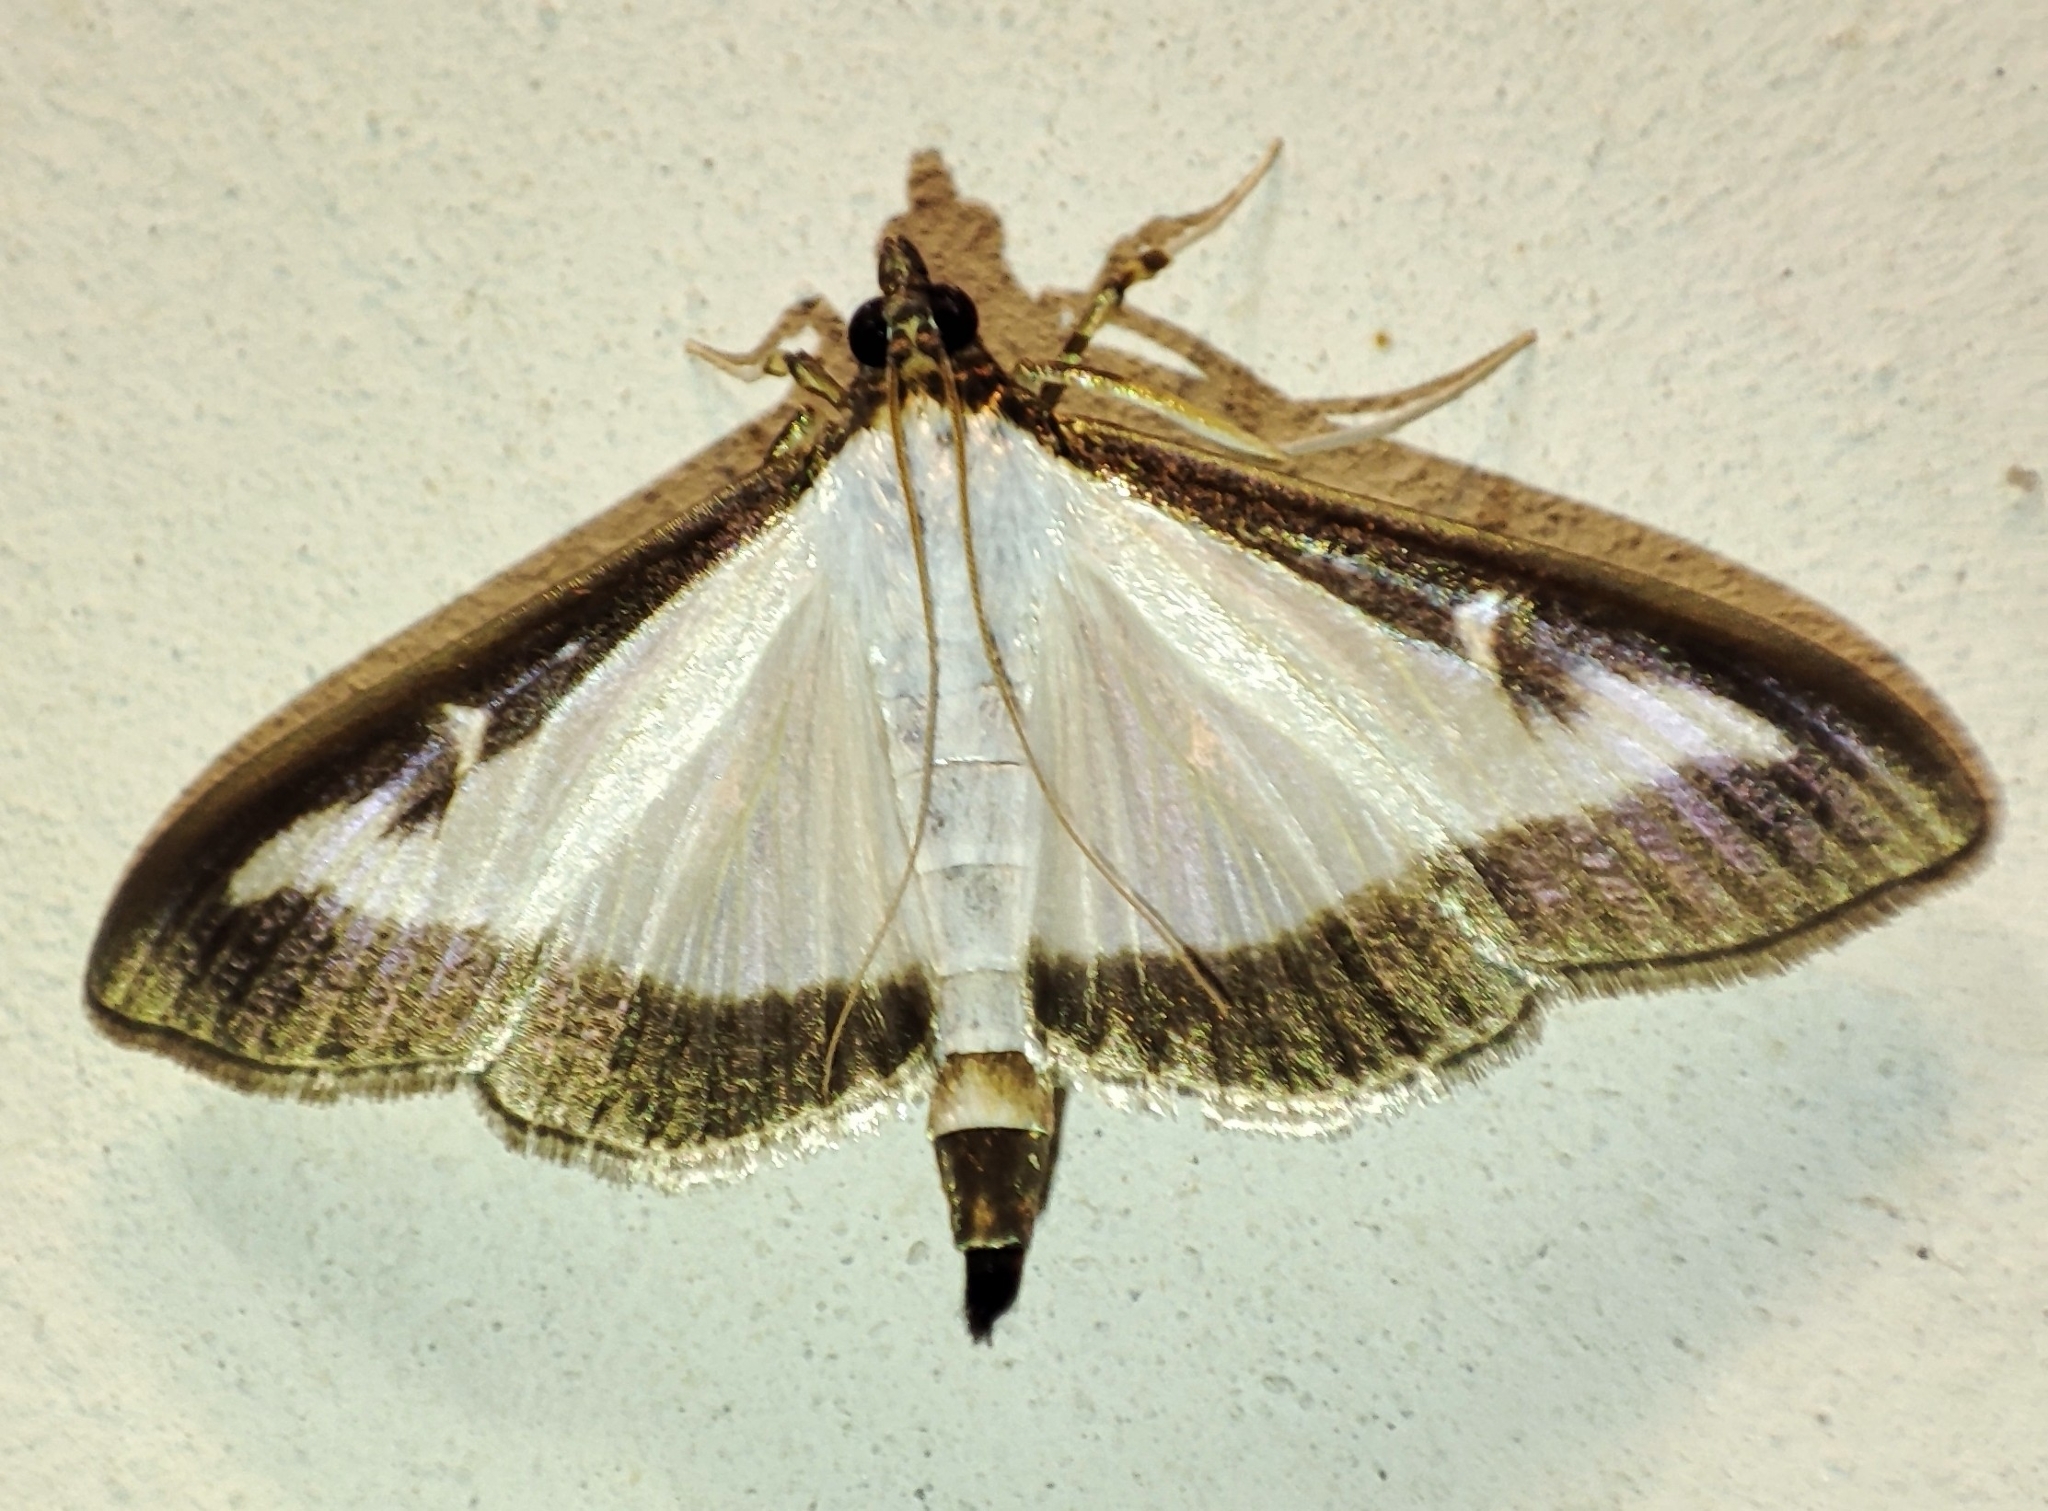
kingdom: Animalia
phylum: Arthropoda
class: Insecta
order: Lepidoptera
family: Crambidae
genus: Cydalima
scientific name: Cydalima perspectalis
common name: Box tree moth
